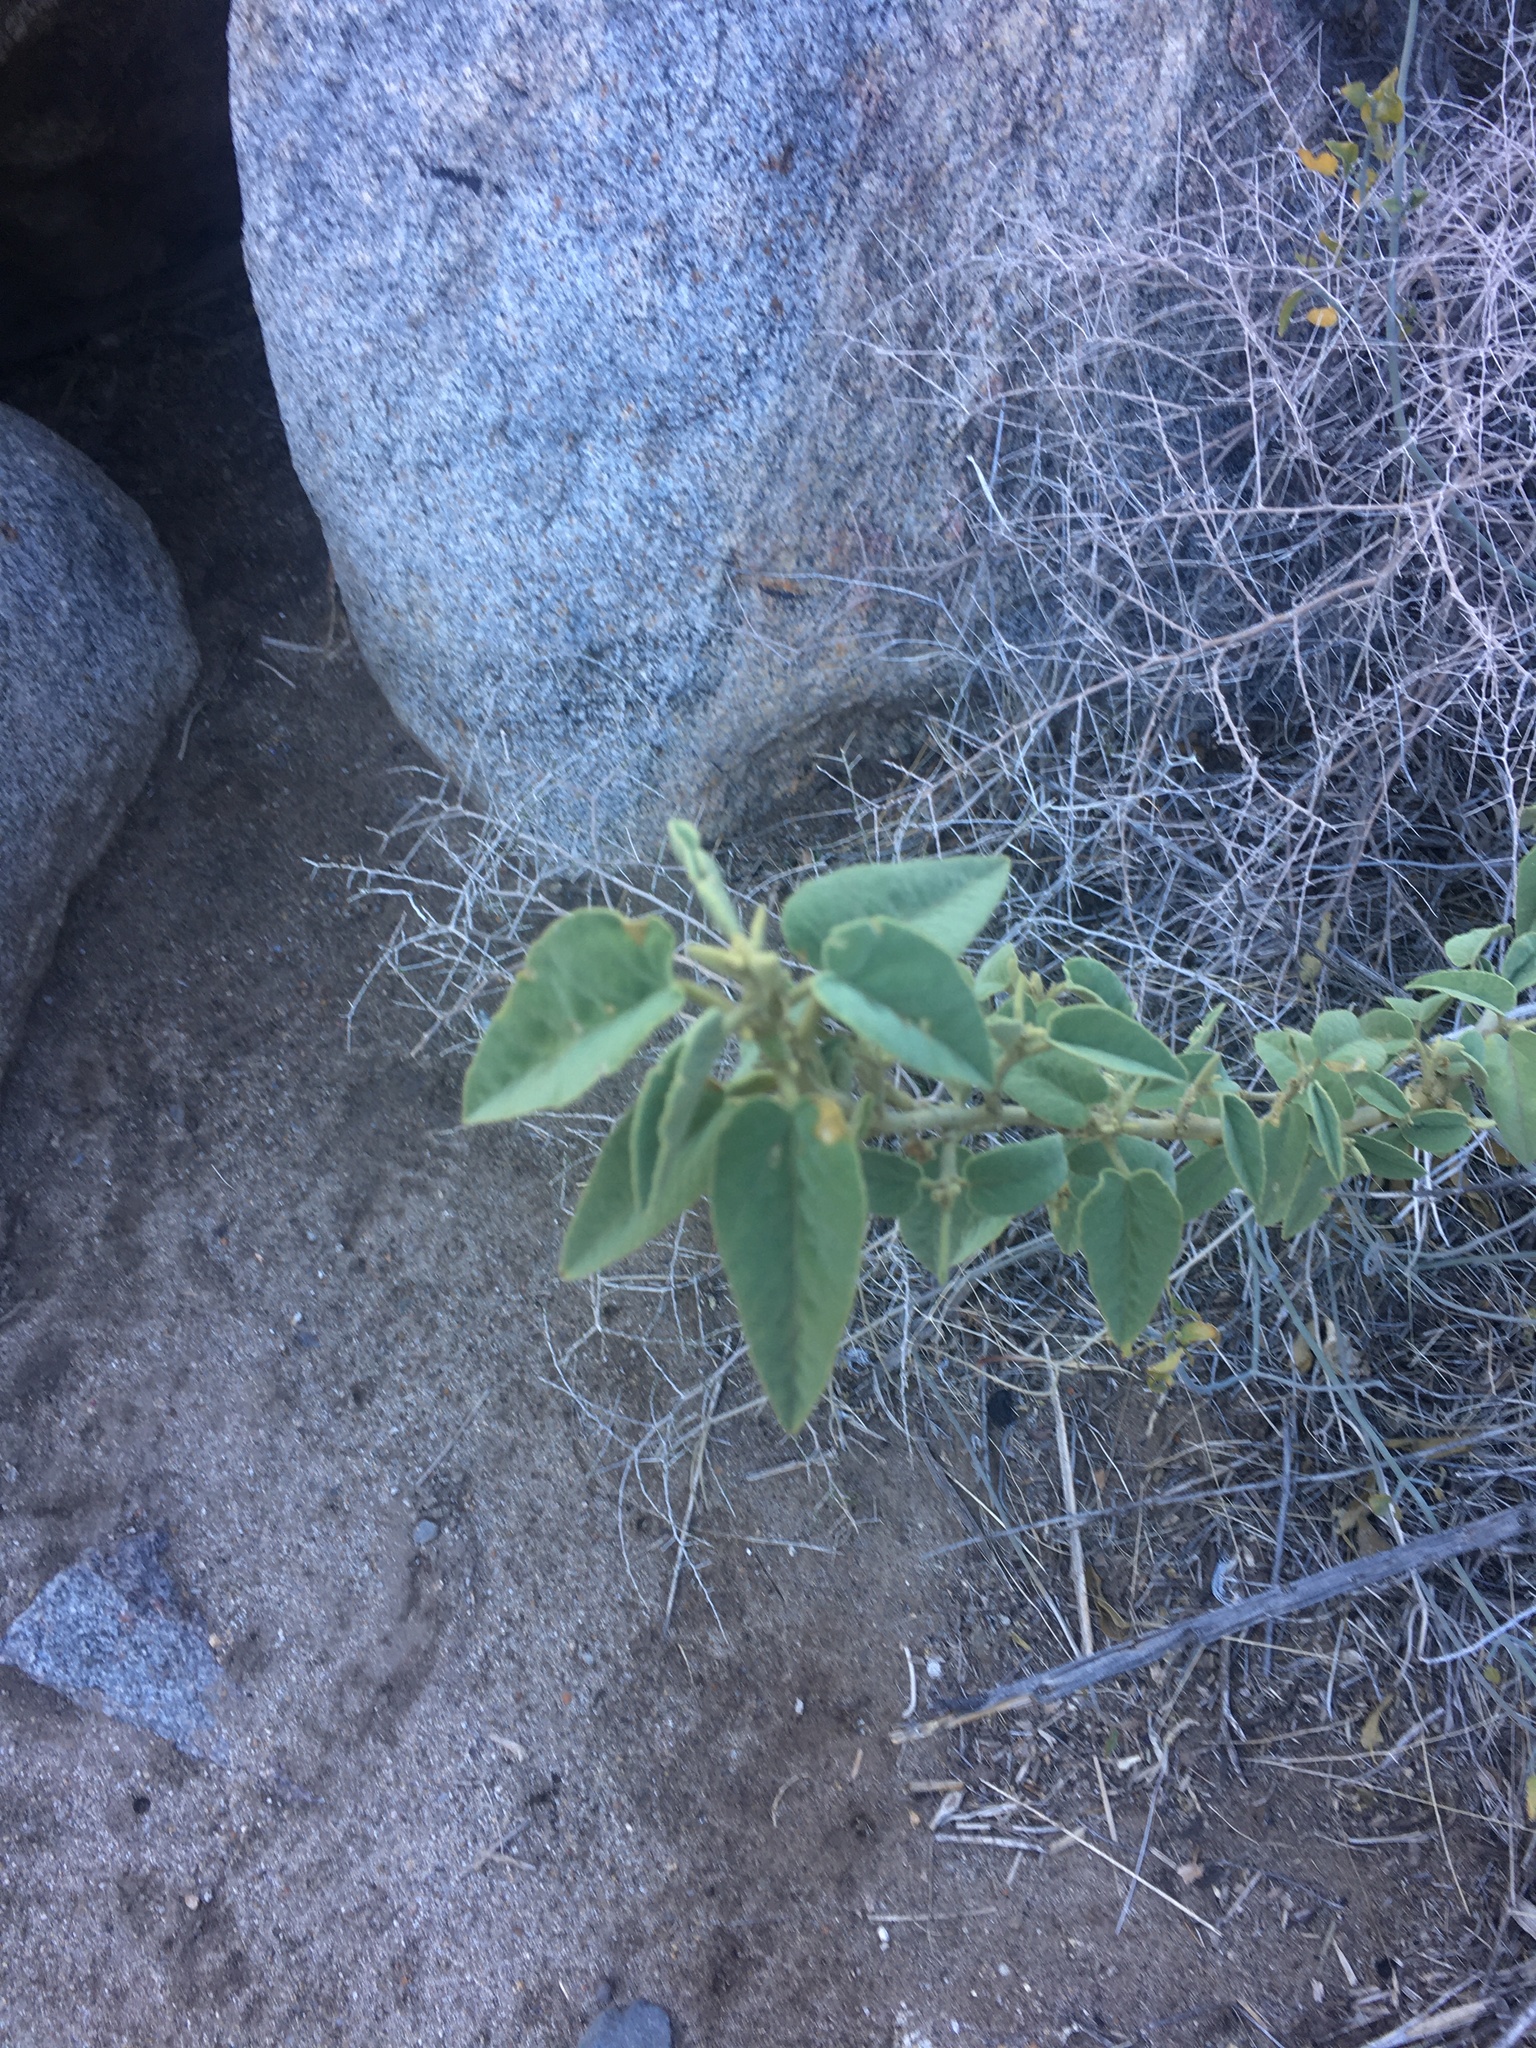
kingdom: Plantae
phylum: Tracheophyta
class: Magnoliopsida
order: Malvales
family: Malvaceae
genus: Horsfordia
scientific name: Horsfordia newberryi
